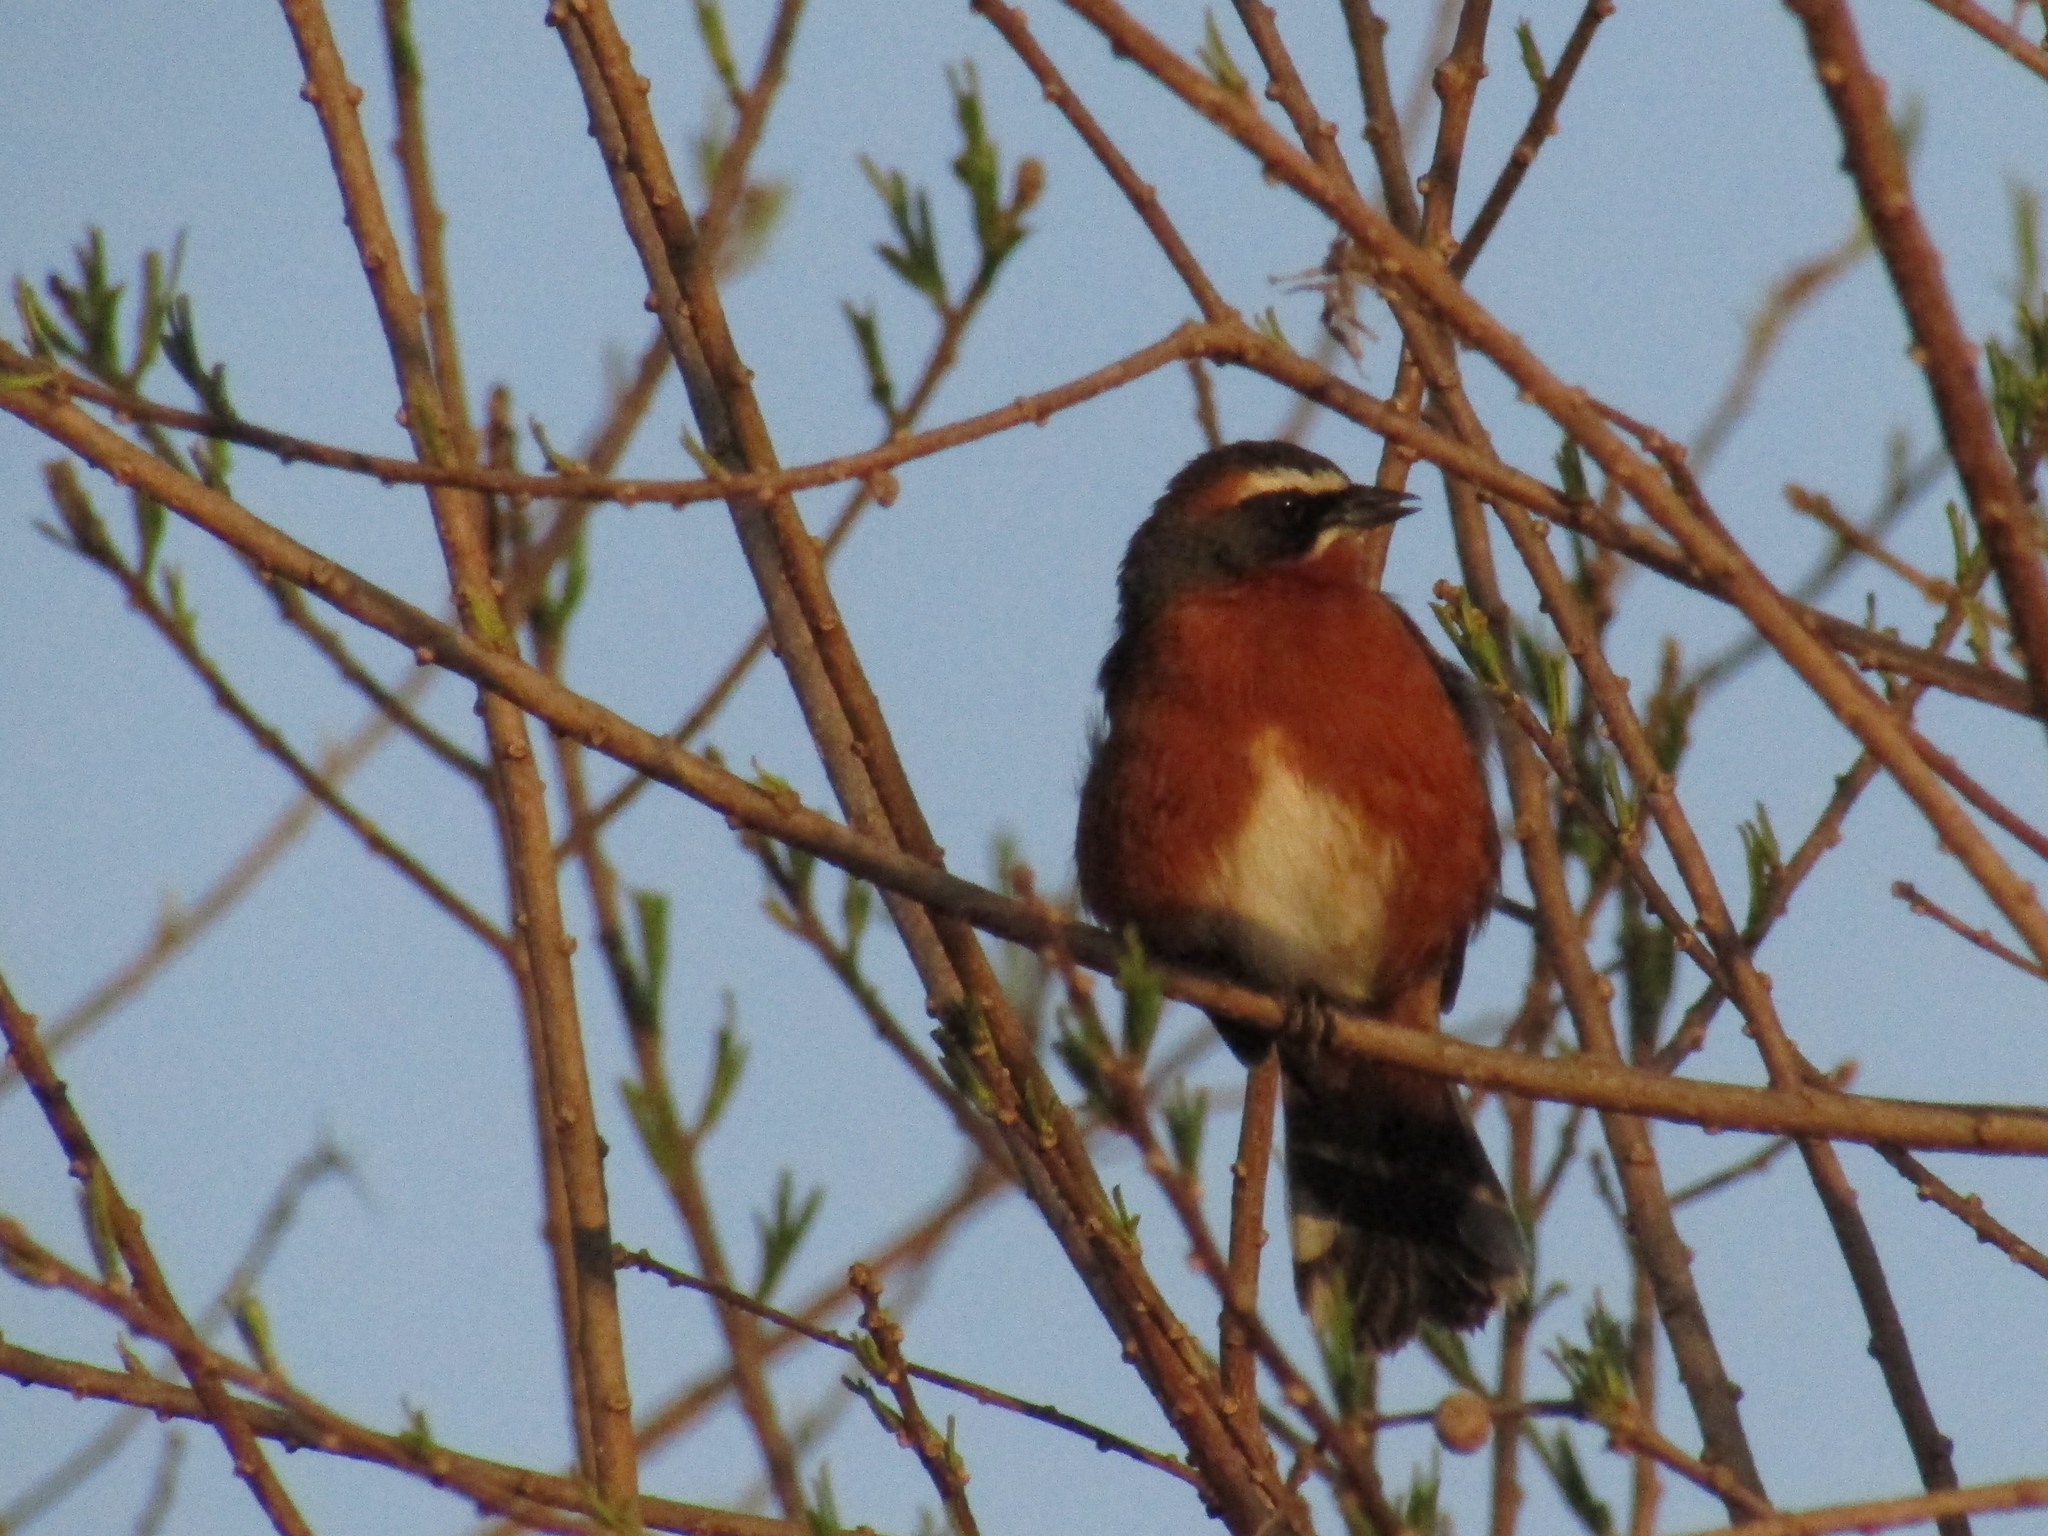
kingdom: Animalia
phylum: Chordata
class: Aves
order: Passeriformes
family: Thraupidae
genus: Poospiza
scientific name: Poospiza nigrorufa
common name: Black-and-rufous warbling finch
